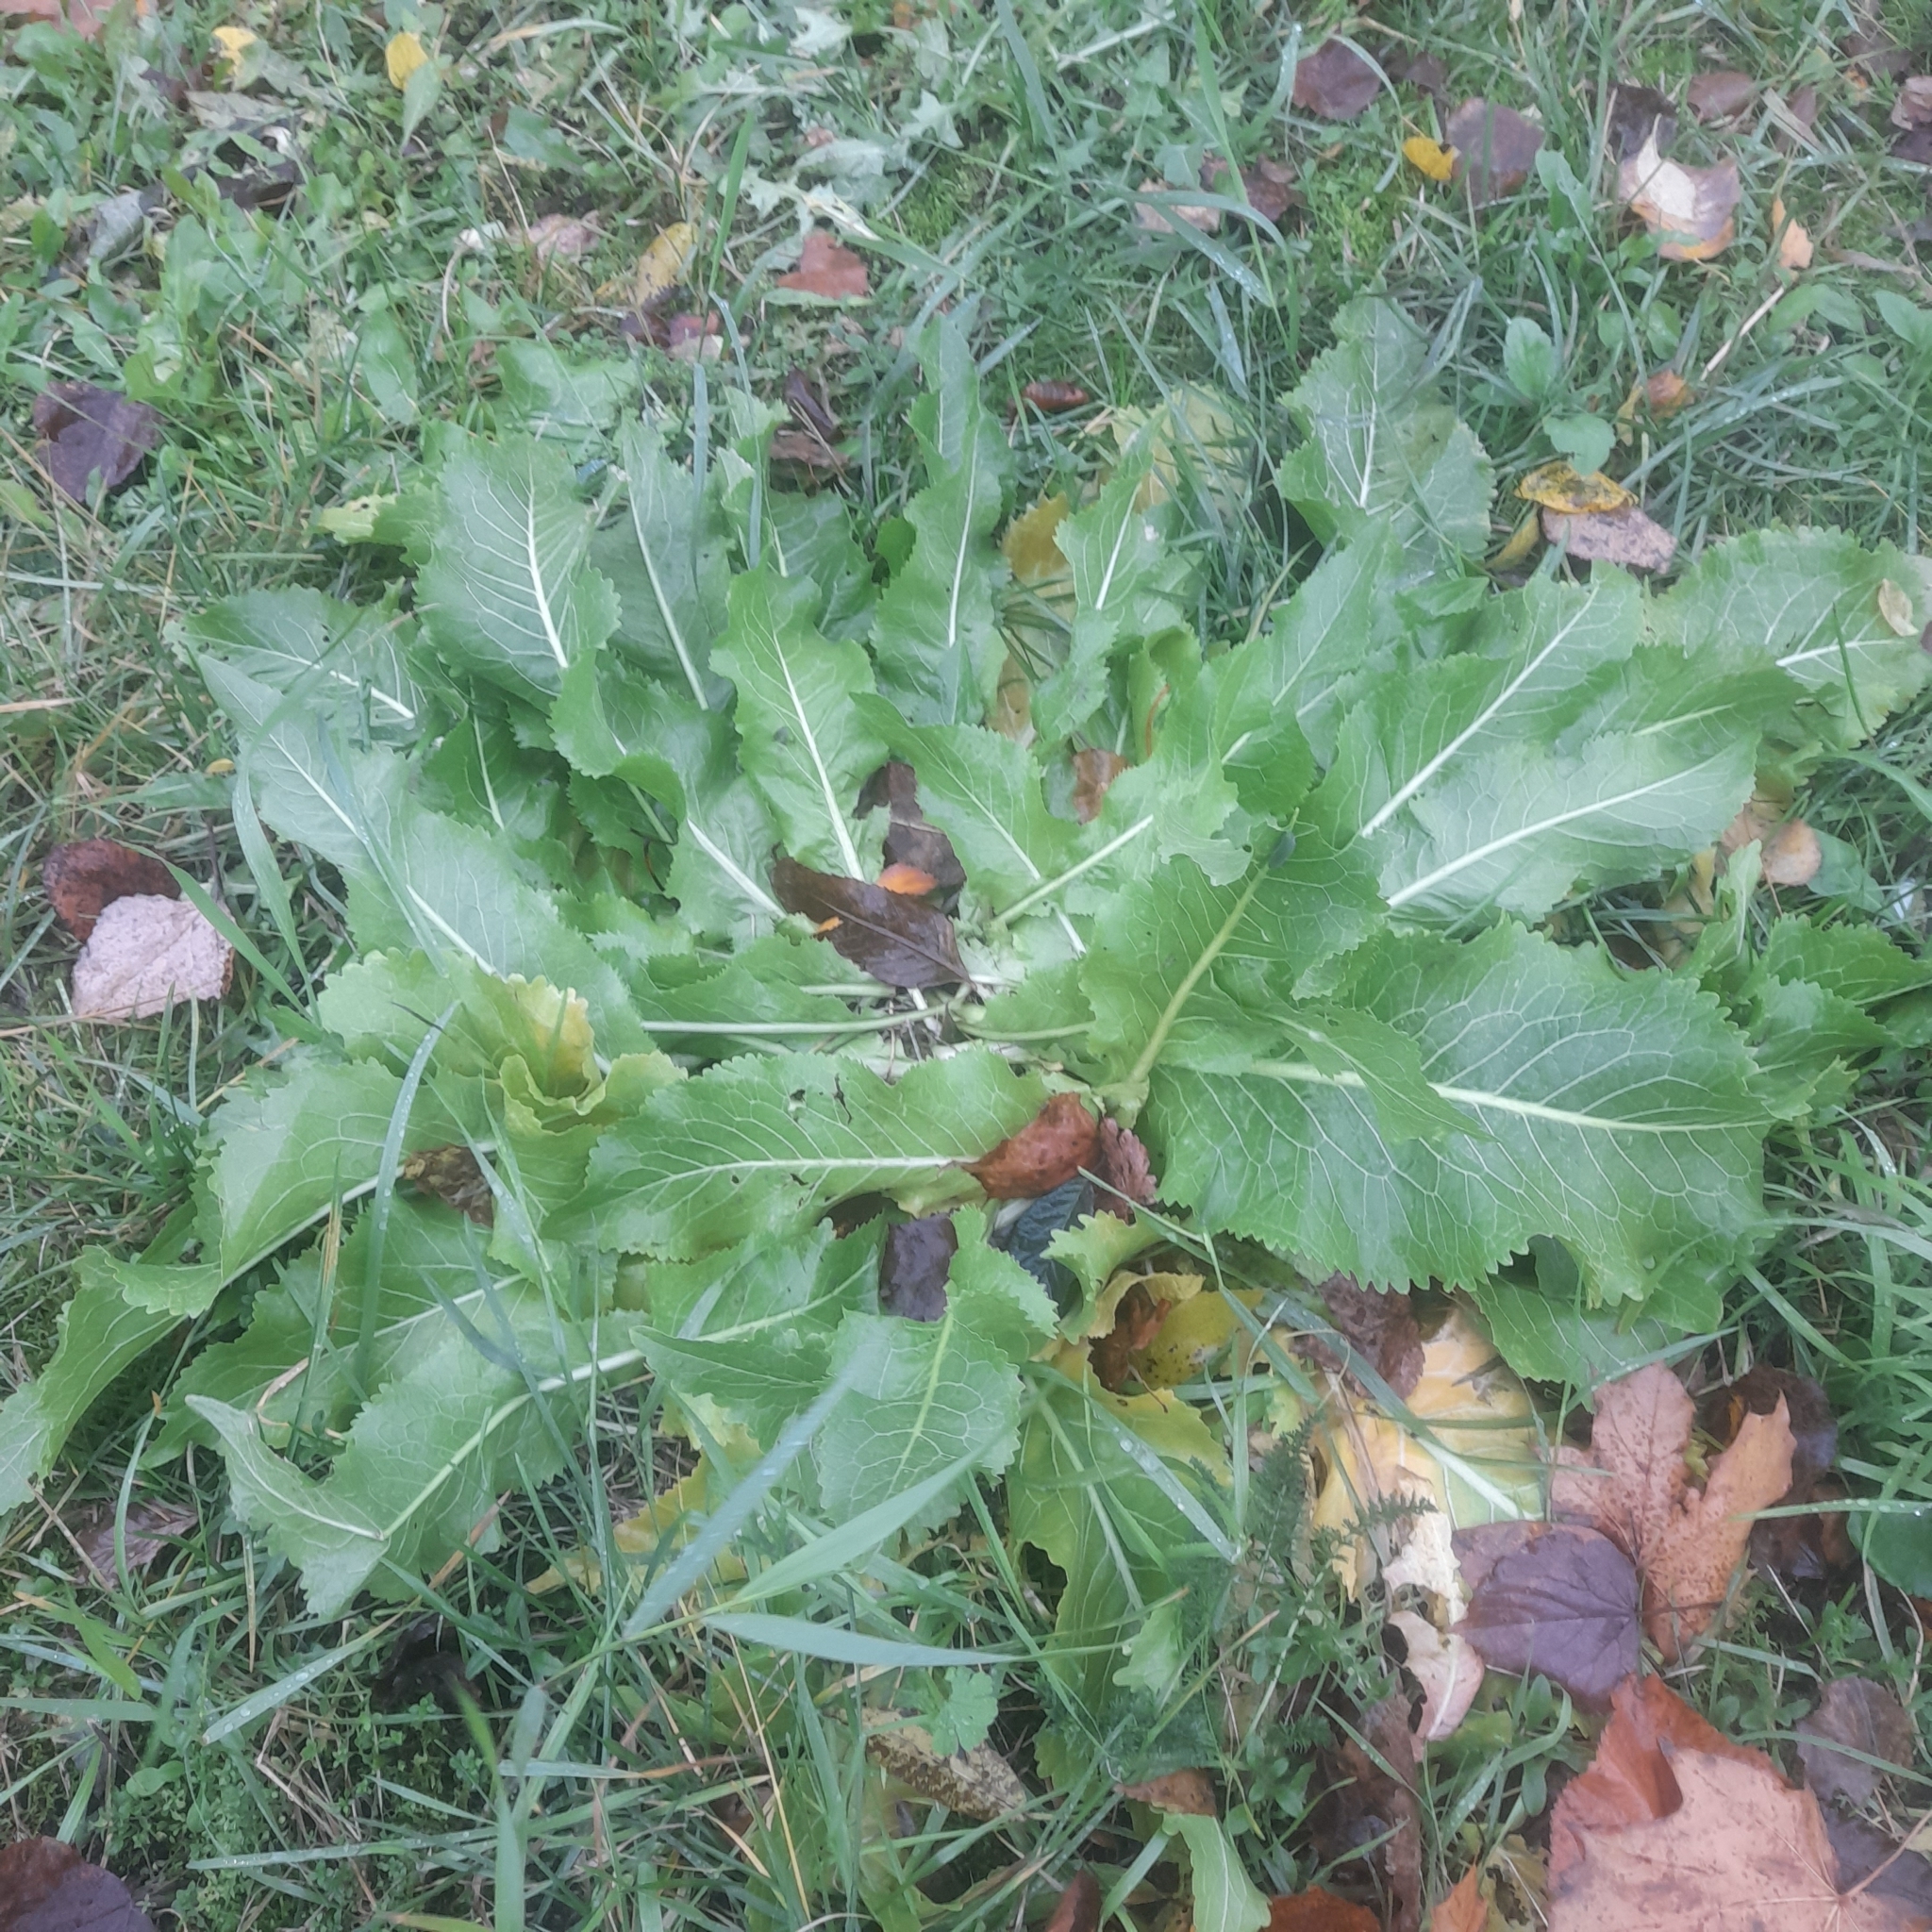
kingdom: Plantae
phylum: Tracheophyta
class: Magnoliopsida
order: Brassicales
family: Brassicaceae
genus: Armoracia
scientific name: Armoracia rusticana
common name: Horseradish
